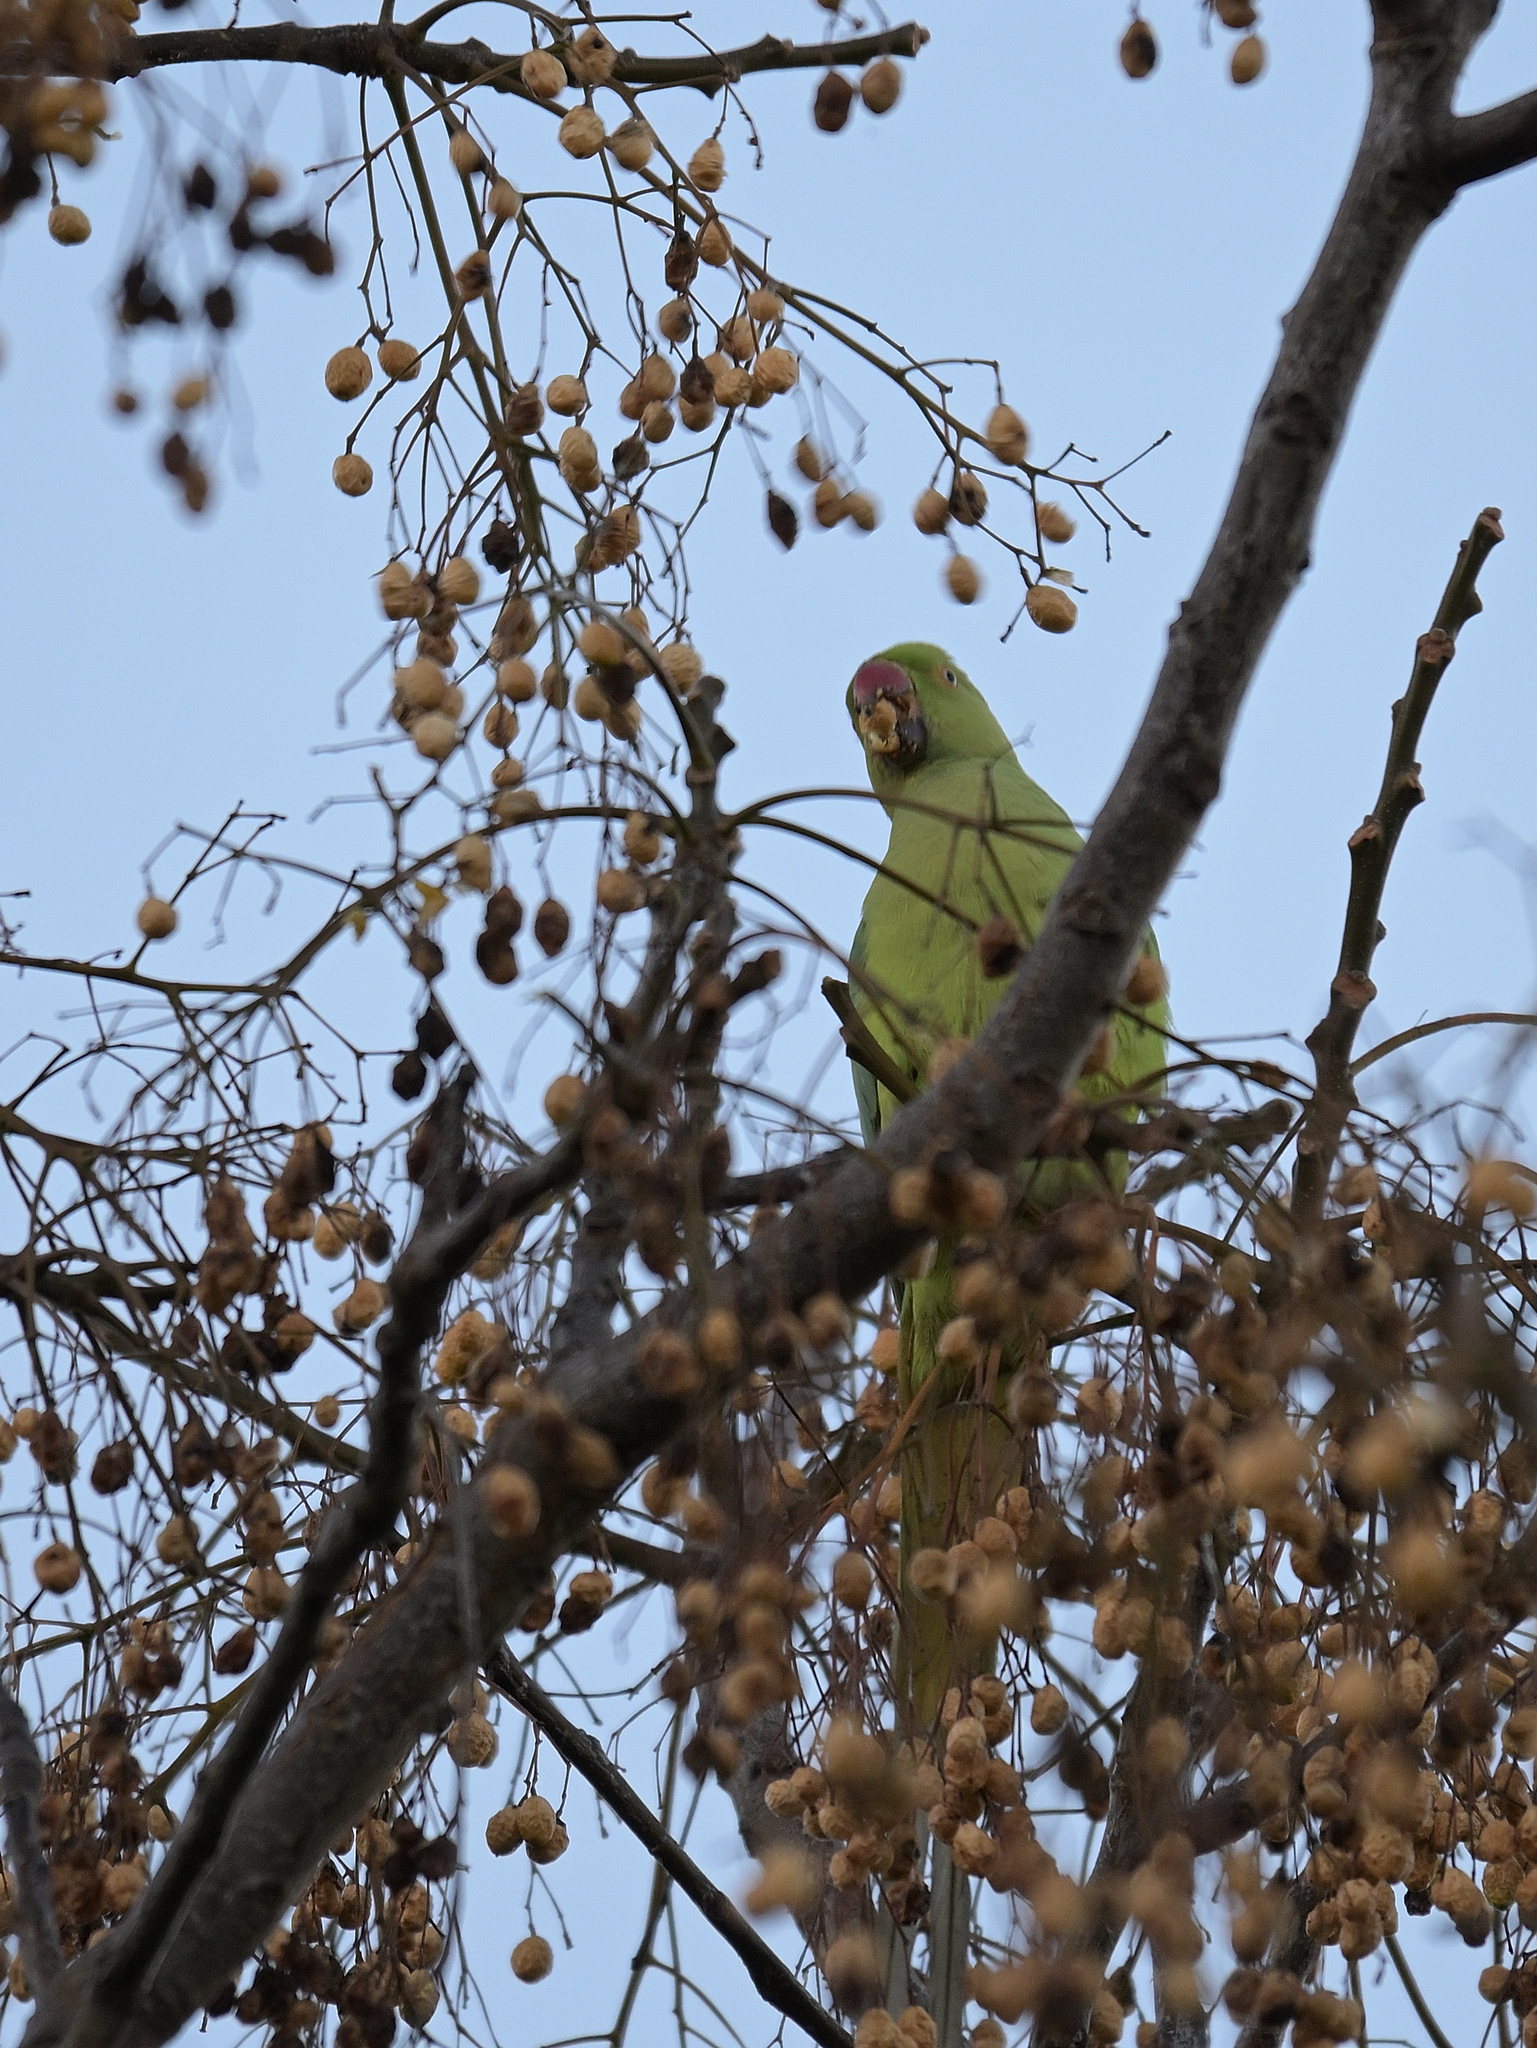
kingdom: Animalia
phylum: Chordata
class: Aves
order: Psittaciformes
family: Psittacidae
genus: Psittacula
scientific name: Psittacula krameri
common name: Rose-ringed parakeet
